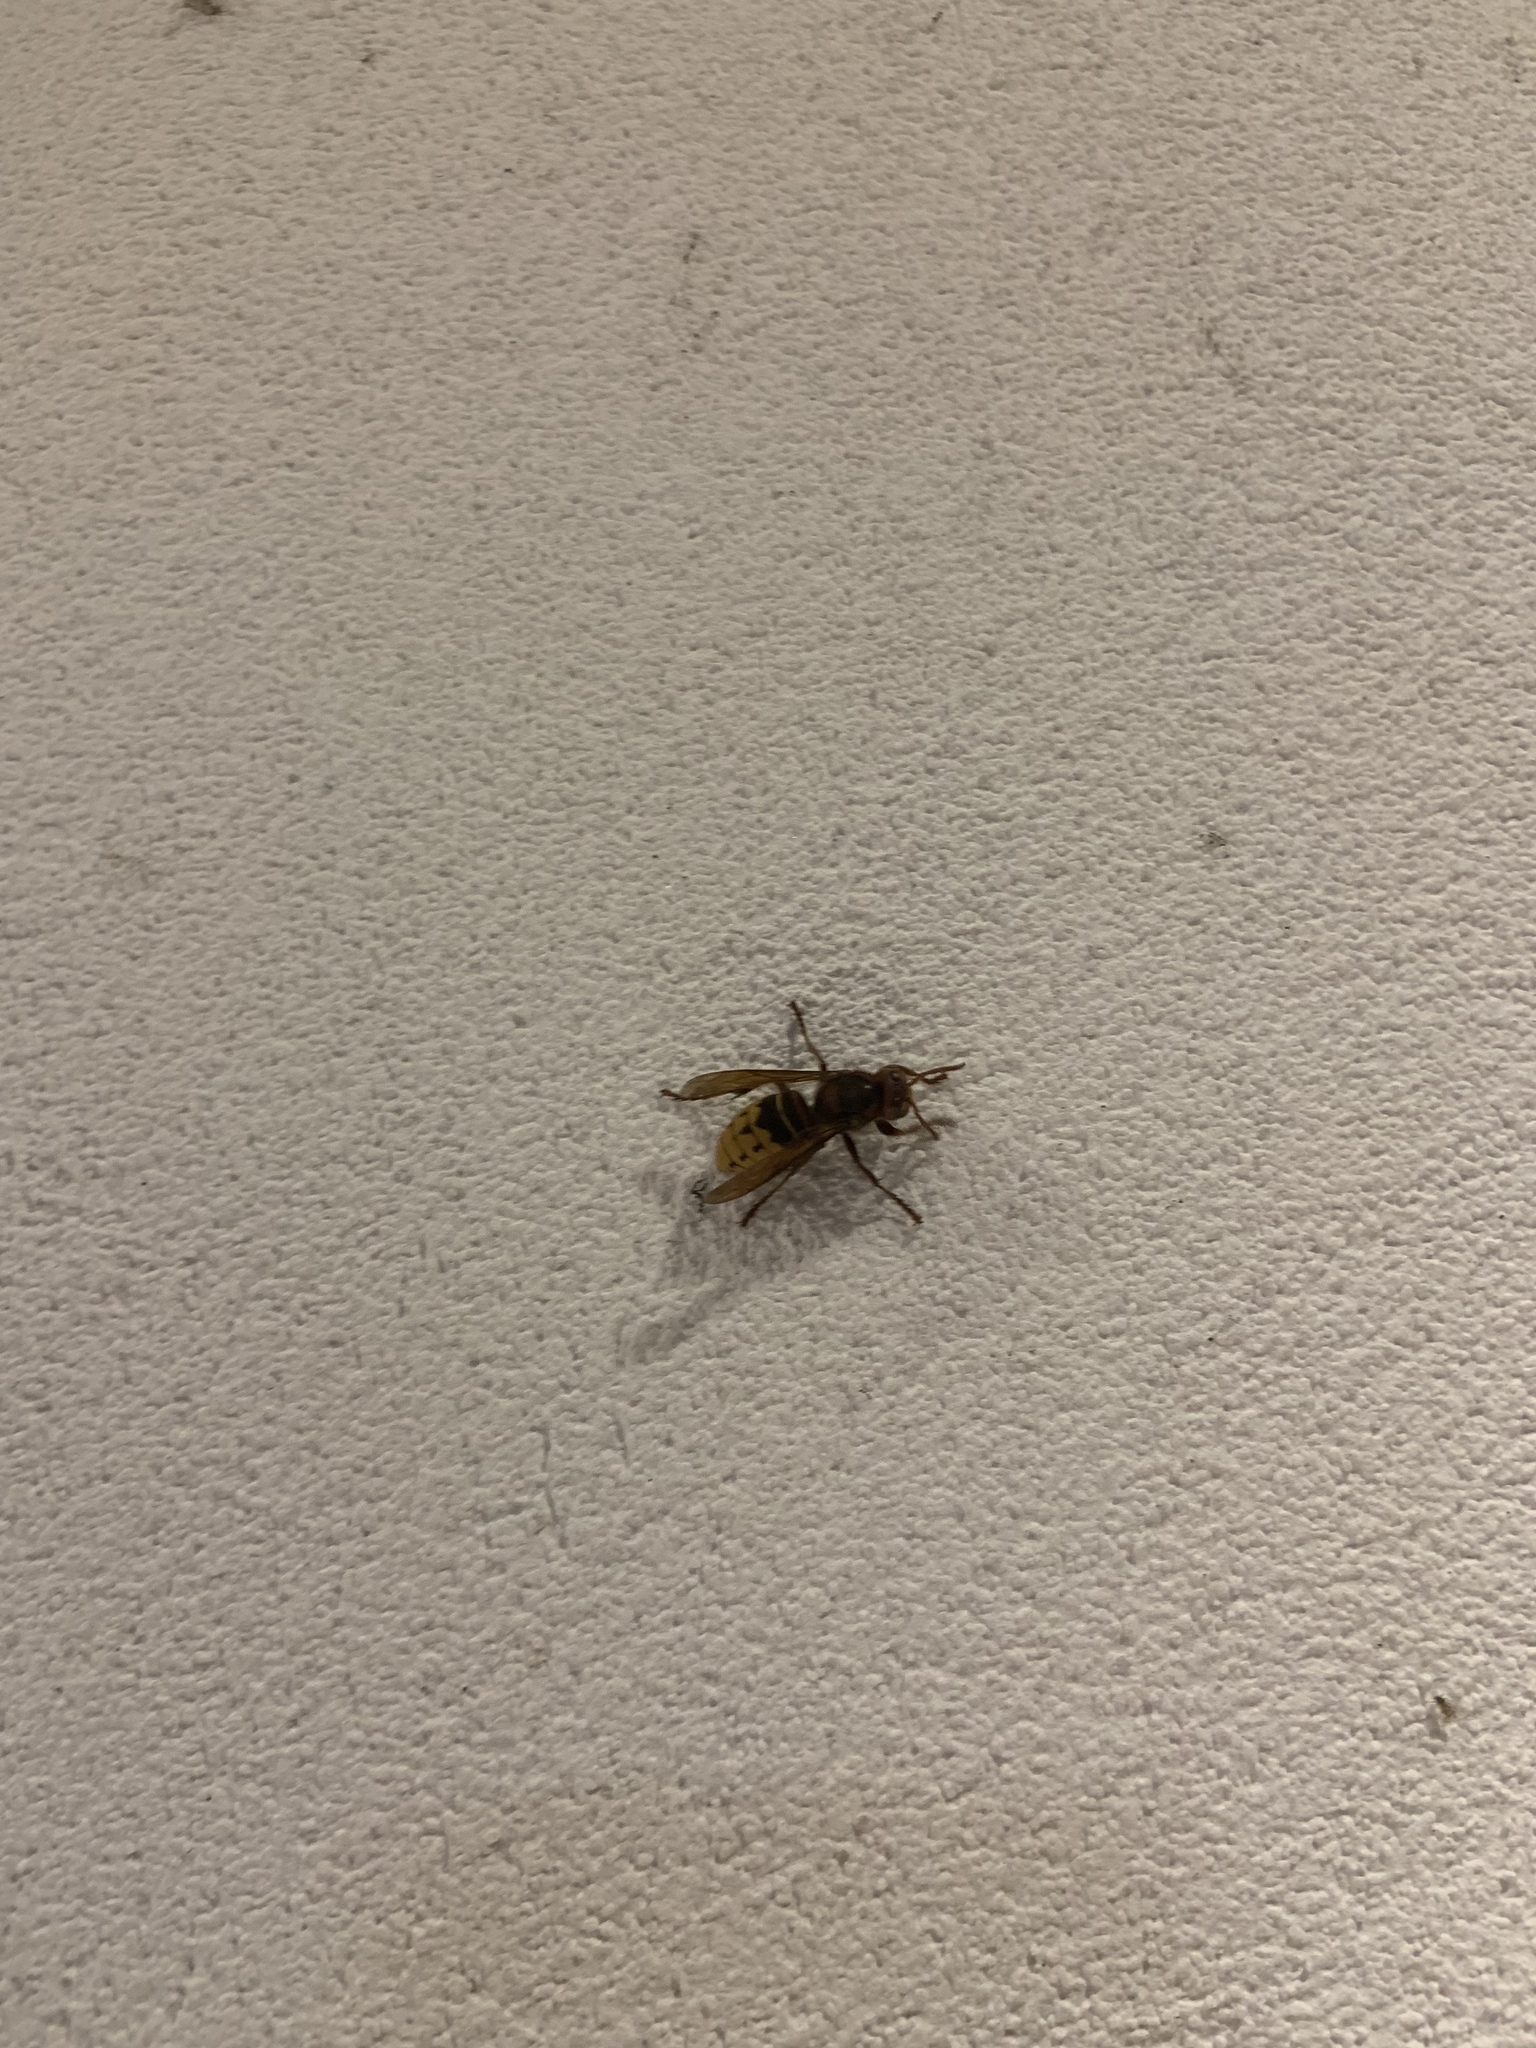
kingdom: Animalia
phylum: Arthropoda
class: Insecta
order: Hymenoptera
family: Vespidae
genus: Vespa
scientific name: Vespa crabro
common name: Hornet
